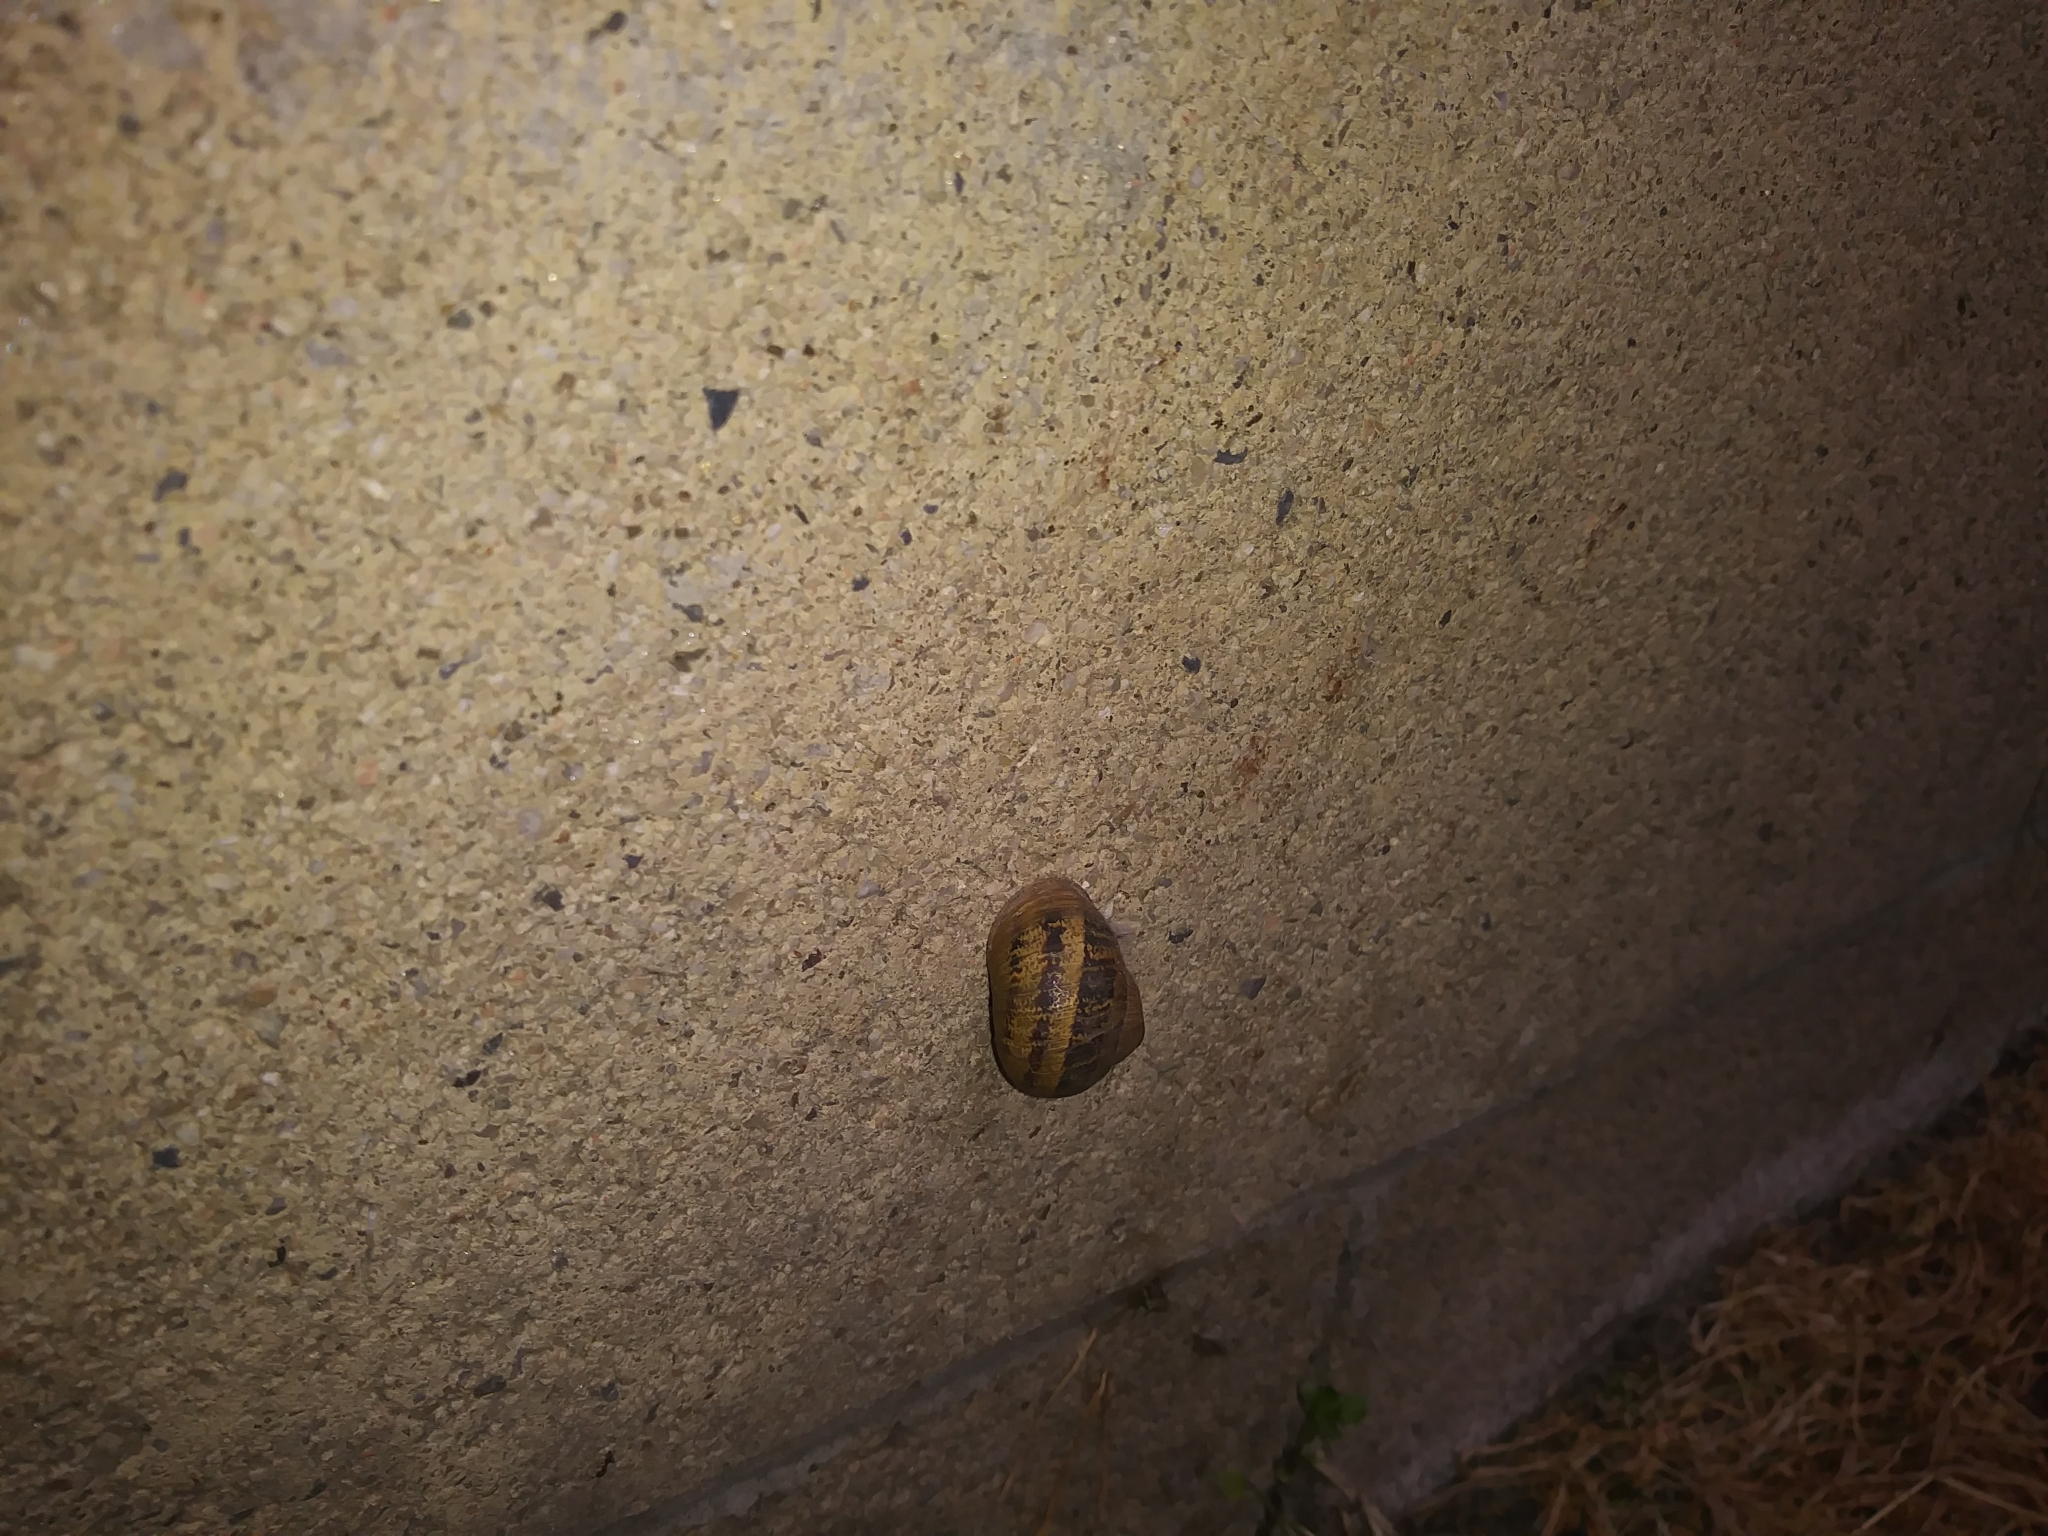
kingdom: Animalia
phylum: Mollusca
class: Gastropoda
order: Stylommatophora
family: Helicidae
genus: Cornu
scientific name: Cornu aspersum
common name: Brown garden snail
